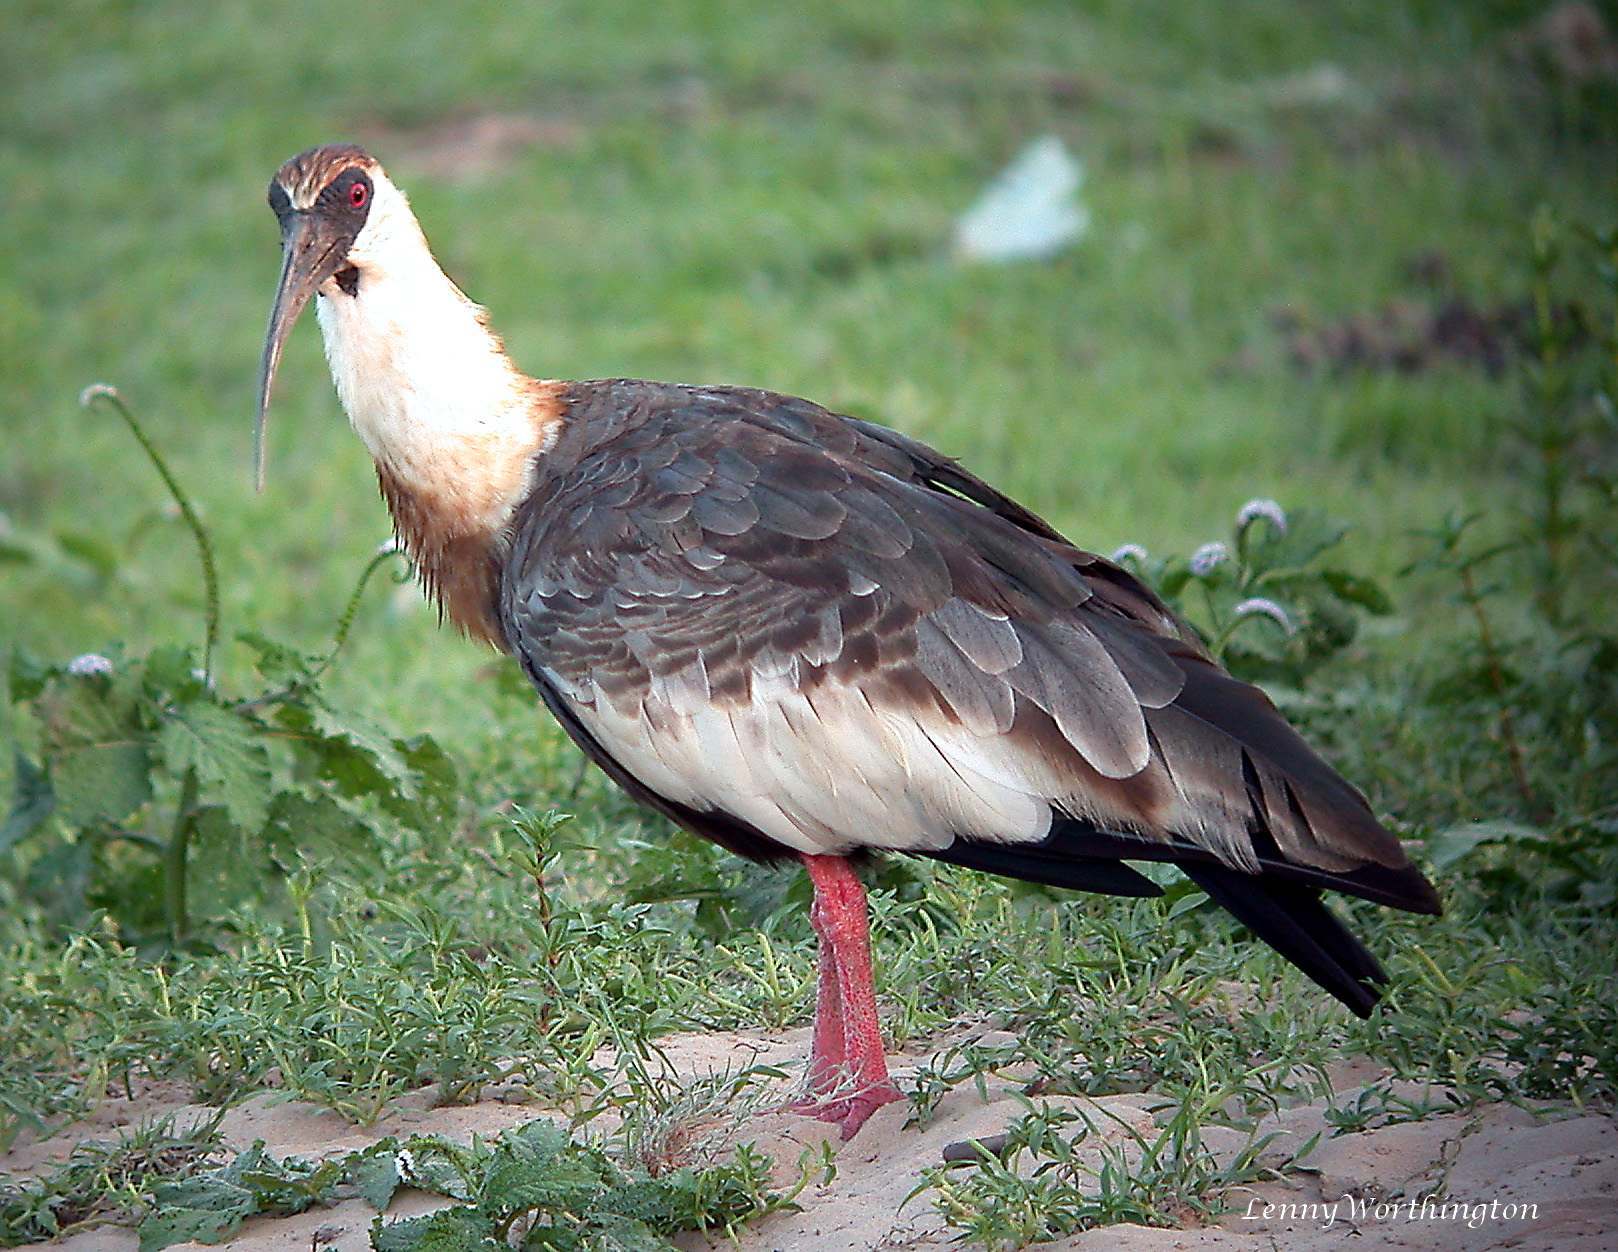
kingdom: Animalia
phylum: Chordata
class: Aves
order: Pelecaniformes
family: Threskiornithidae
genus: Theristicus
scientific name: Theristicus caudatus
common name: Buff-necked ibis
